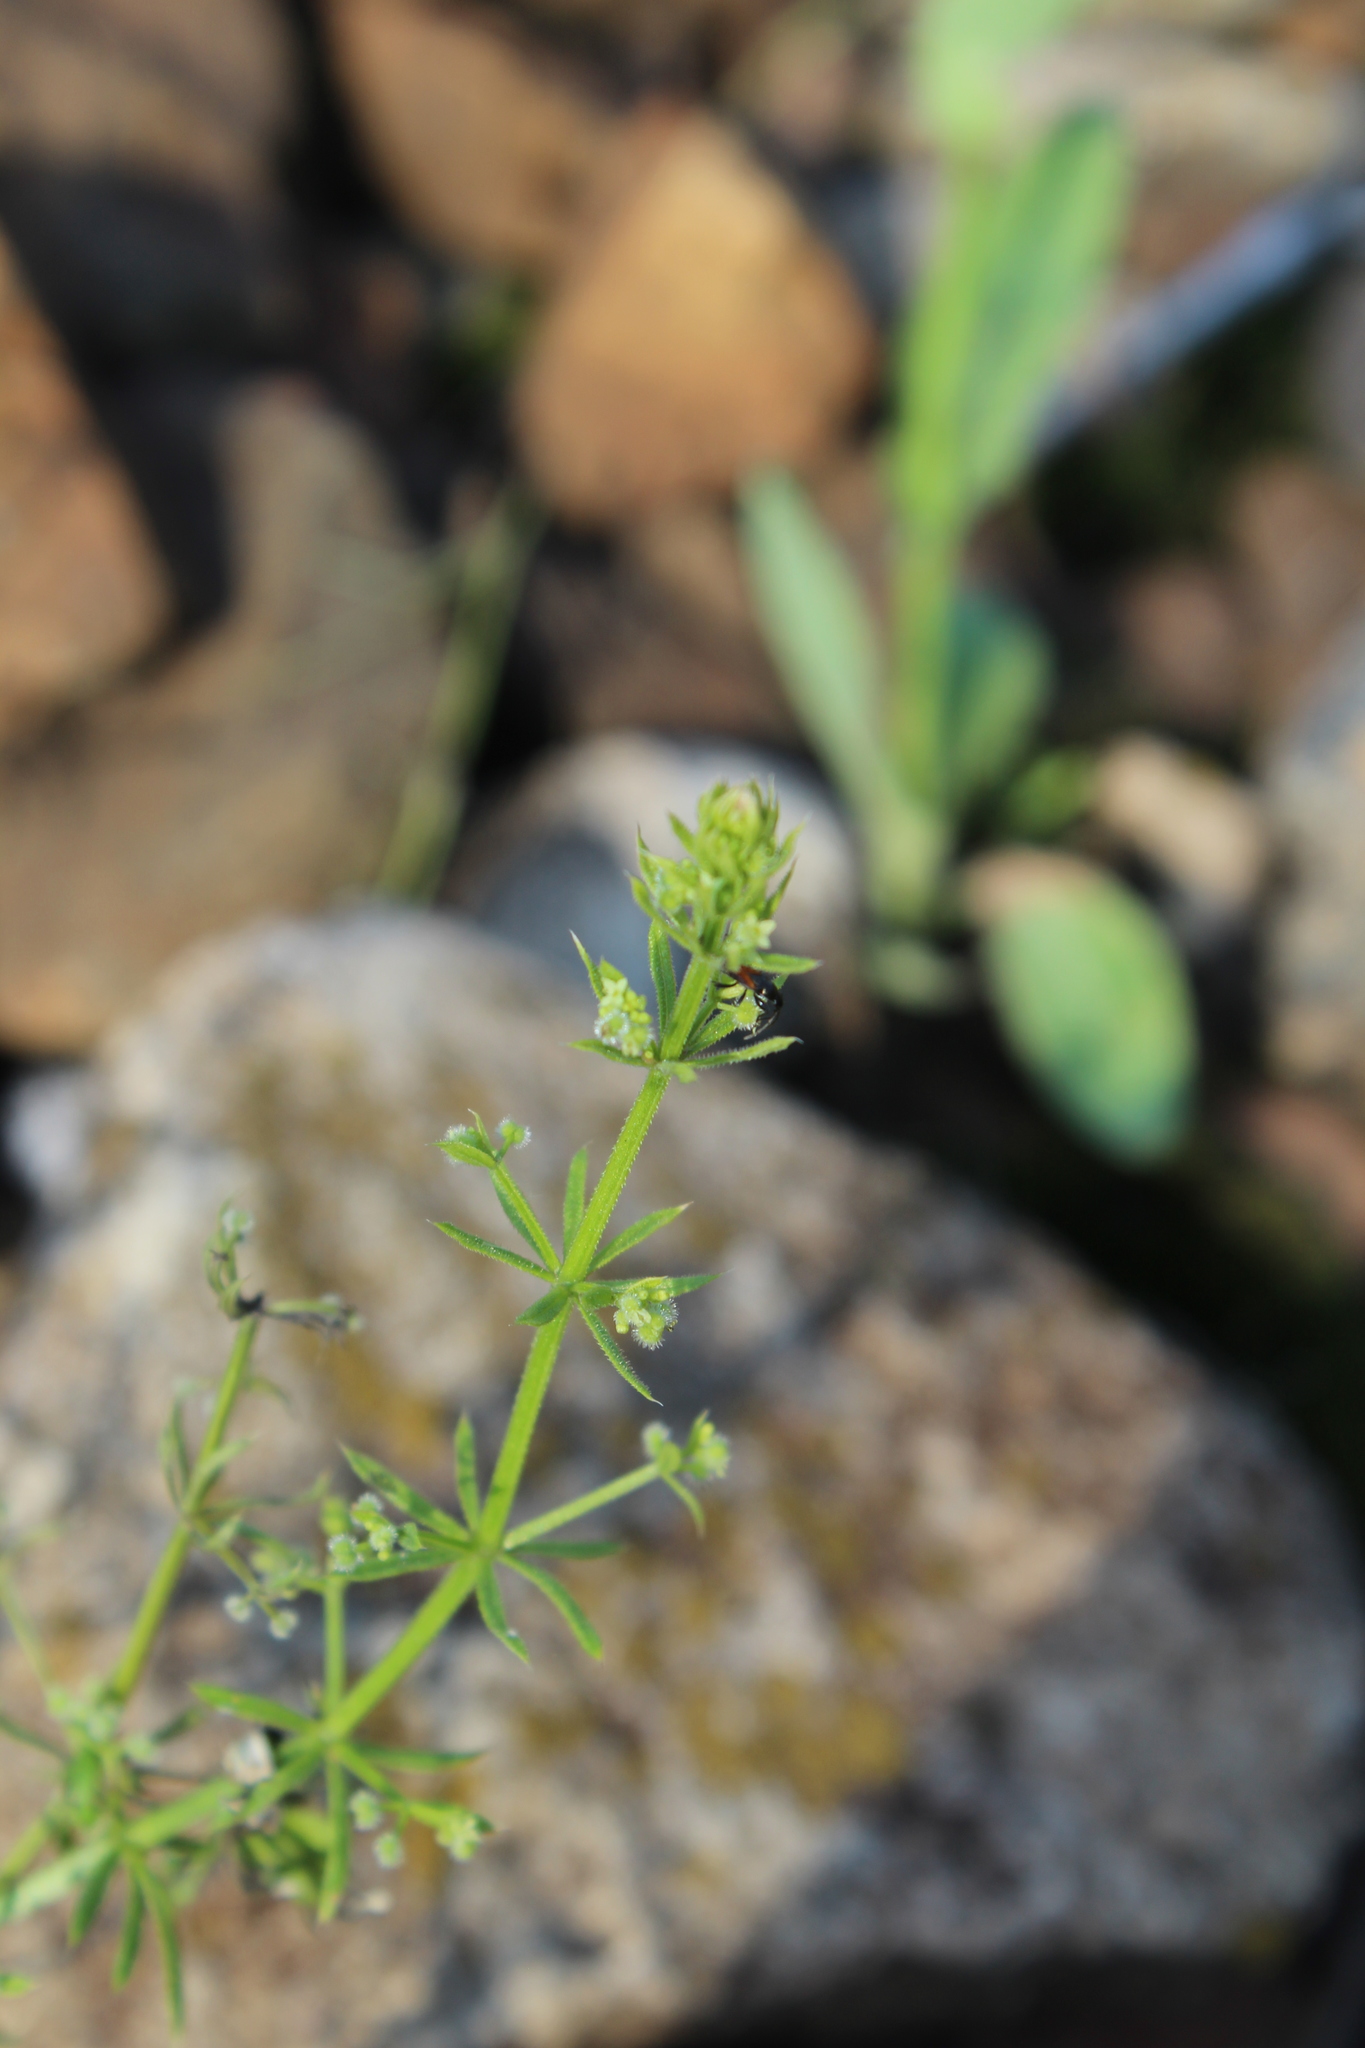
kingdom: Plantae
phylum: Tracheophyta
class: Magnoliopsida
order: Gentianales
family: Rubiaceae
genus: Galium
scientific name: Galium spurium
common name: False cleavers
